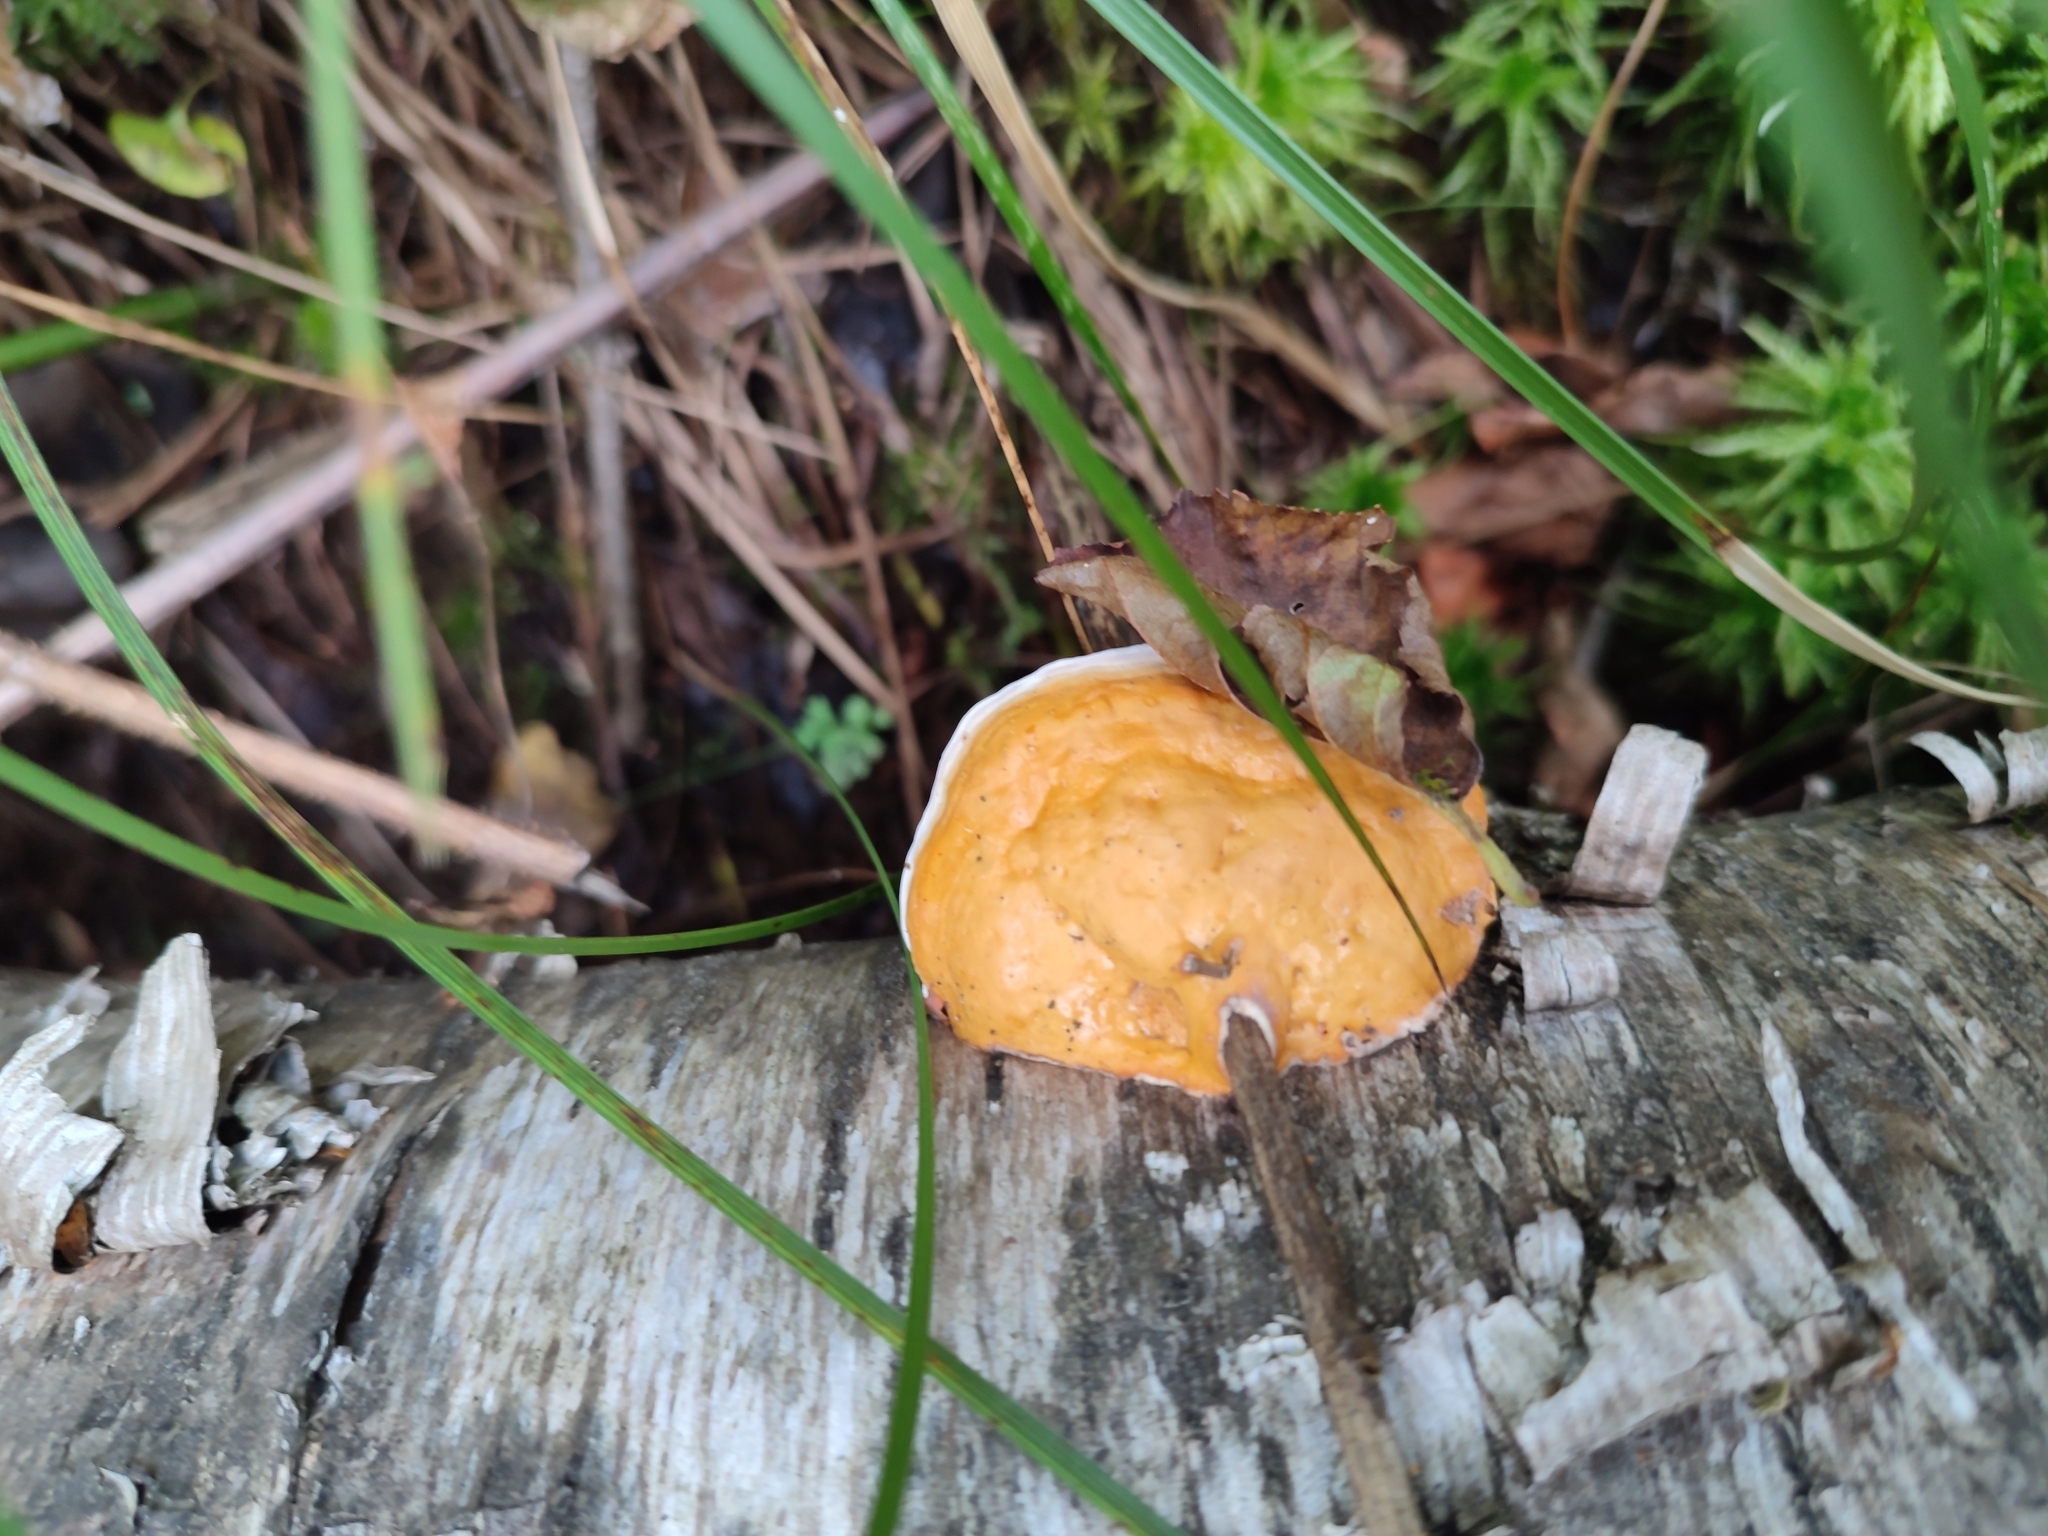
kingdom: Fungi
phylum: Basidiomycota
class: Agaricomycetes
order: Polyporales
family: Fomitopsidaceae
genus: Fomitopsis
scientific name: Fomitopsis pinicola
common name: Red-belted bracket
